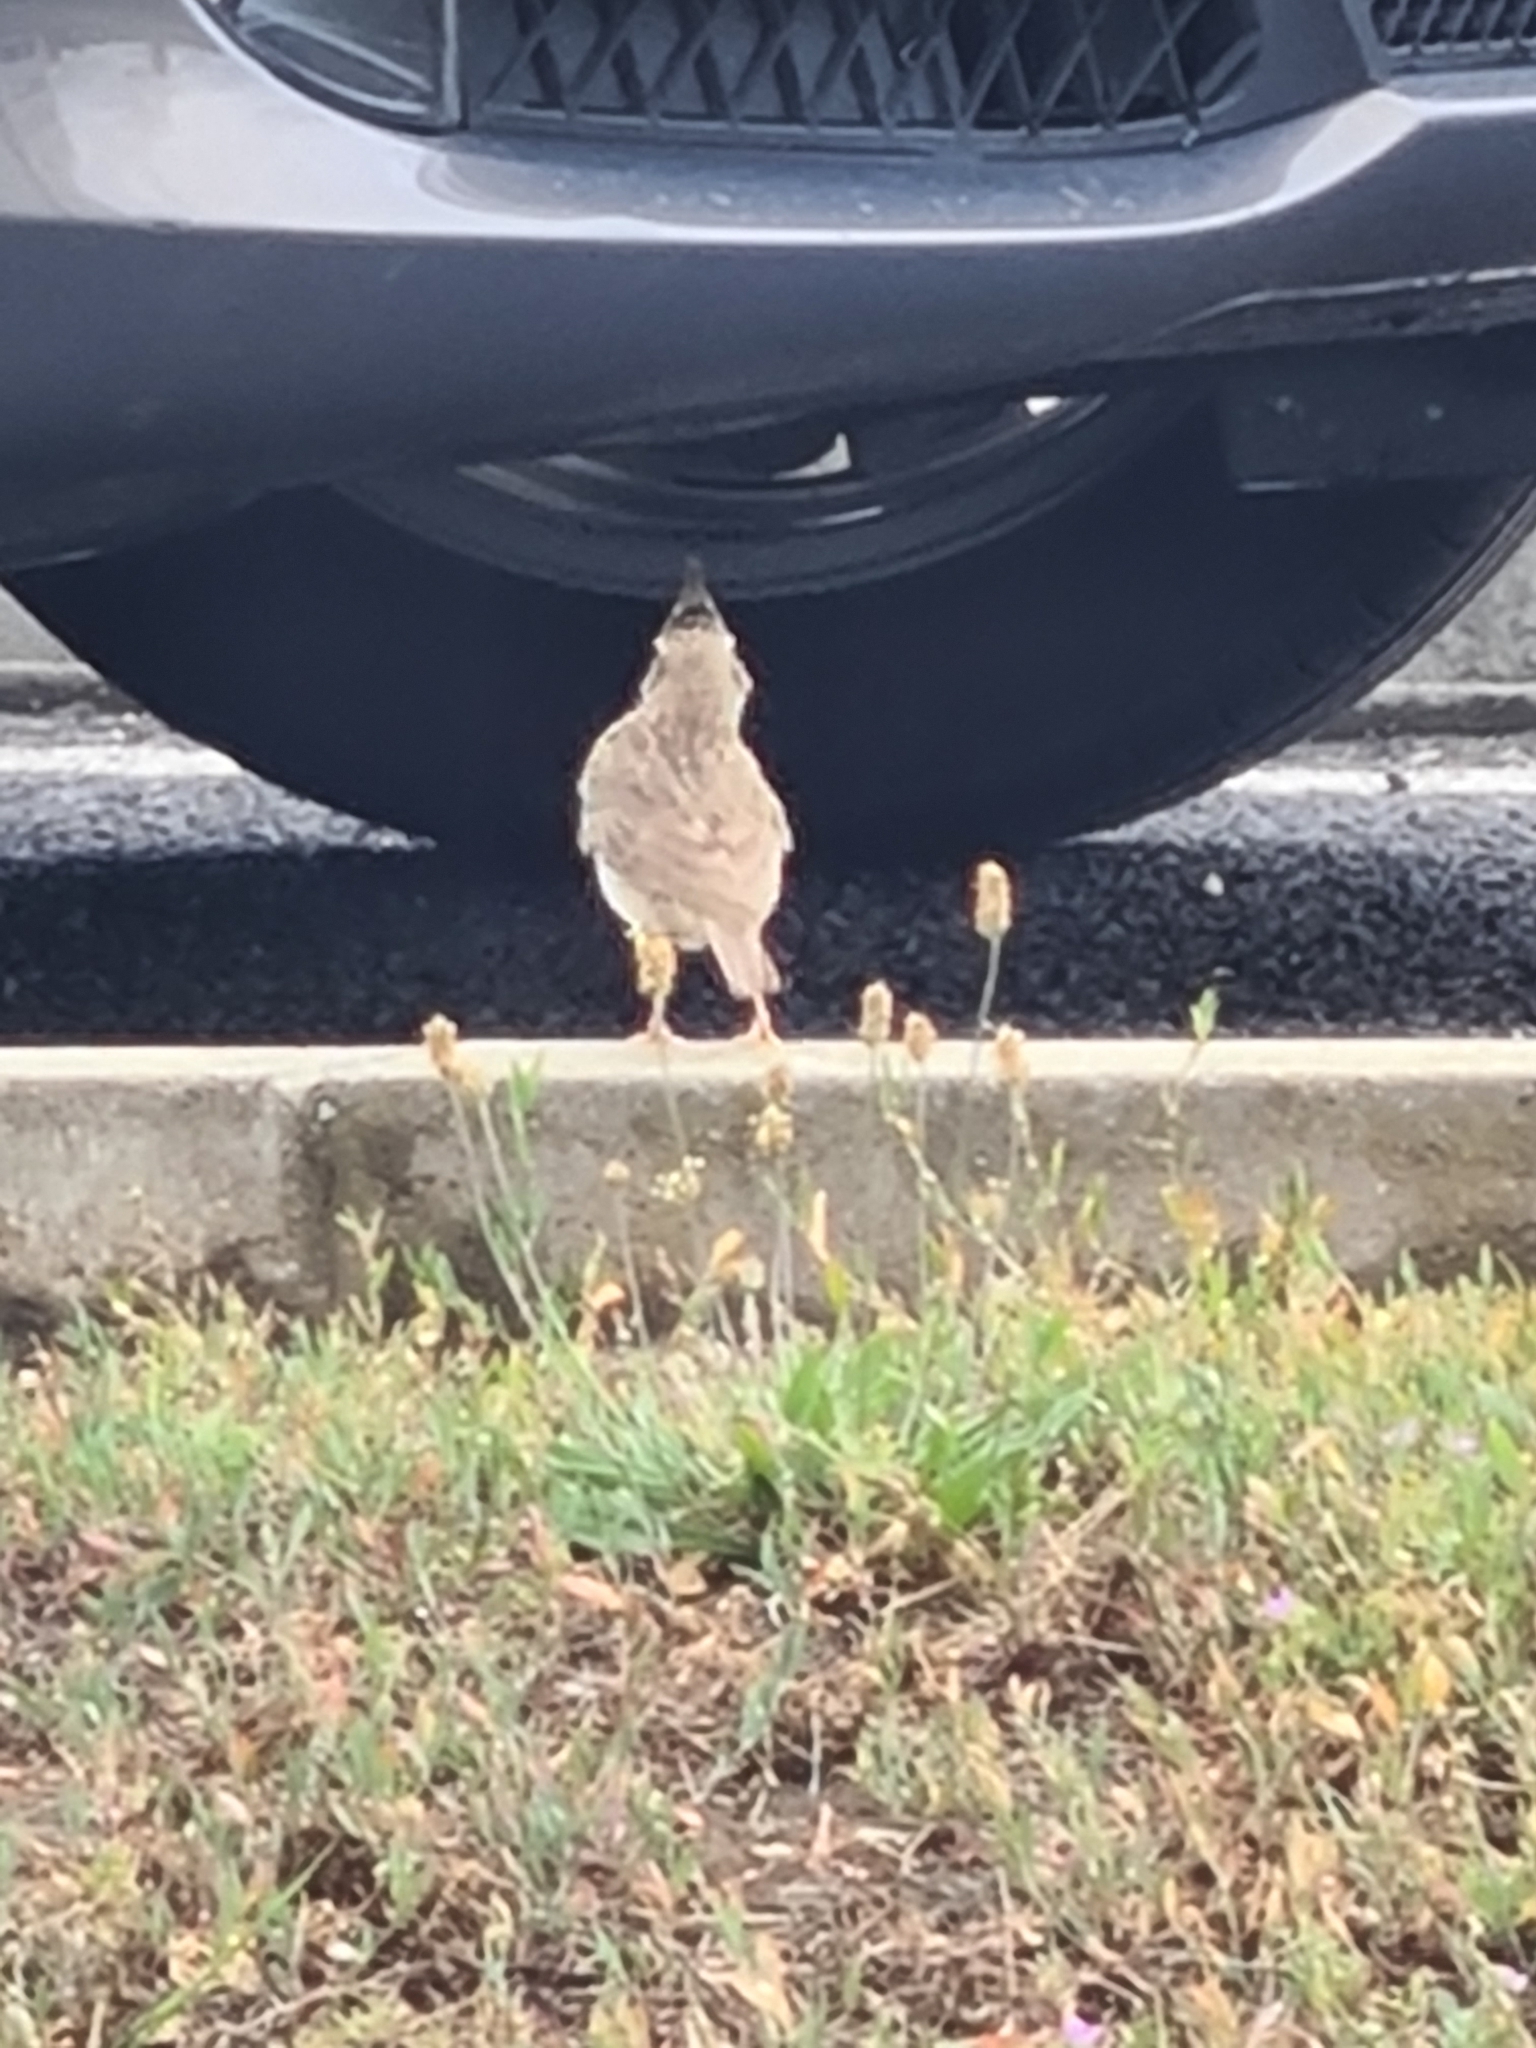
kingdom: Animalia
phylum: Chordata
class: Aves
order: Passeriformes
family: Alaudidae
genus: Galerida
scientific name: Galerida cristata
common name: Crested lark
